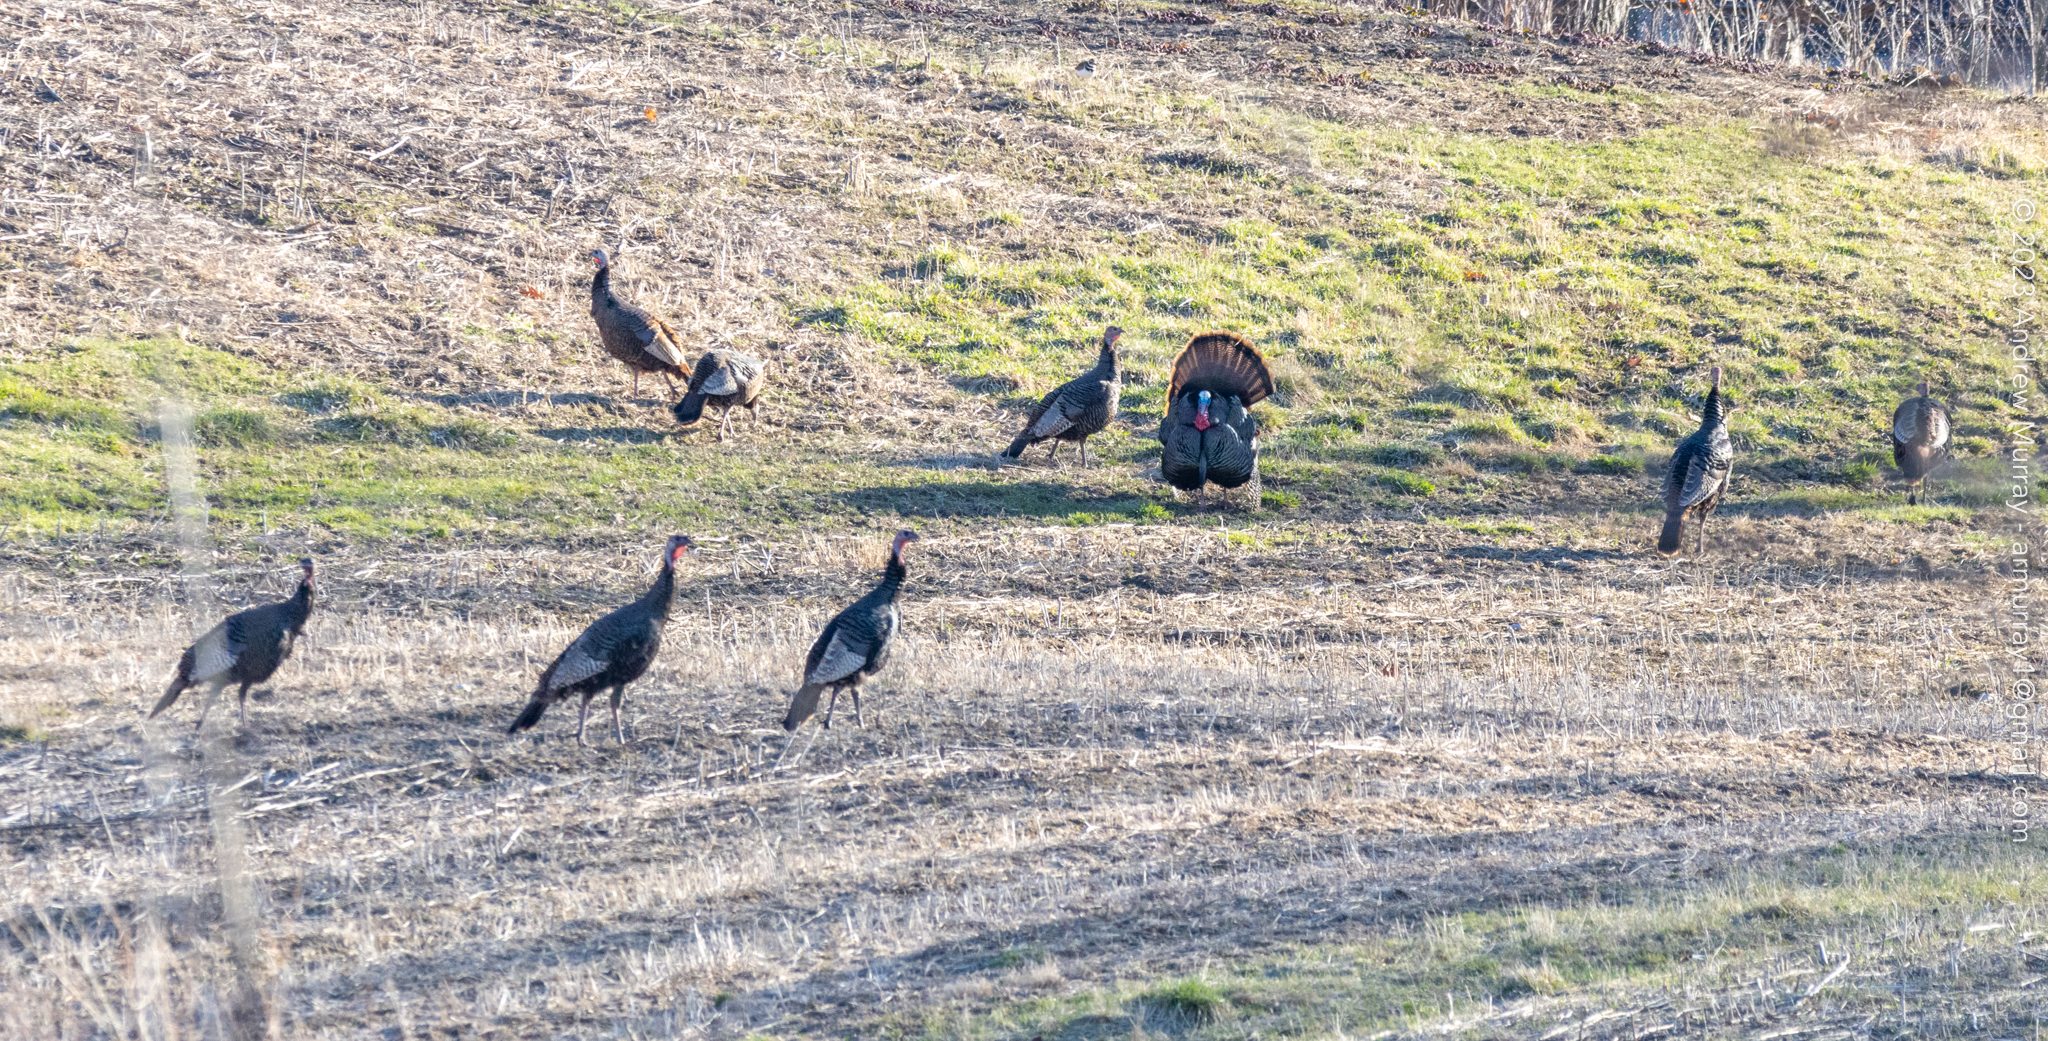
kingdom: Animalia
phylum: Chordata
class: Aves
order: Galliformes
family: Phasianidae
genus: Meleagris
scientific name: Meleagris gallopavo
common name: Wild turkey
